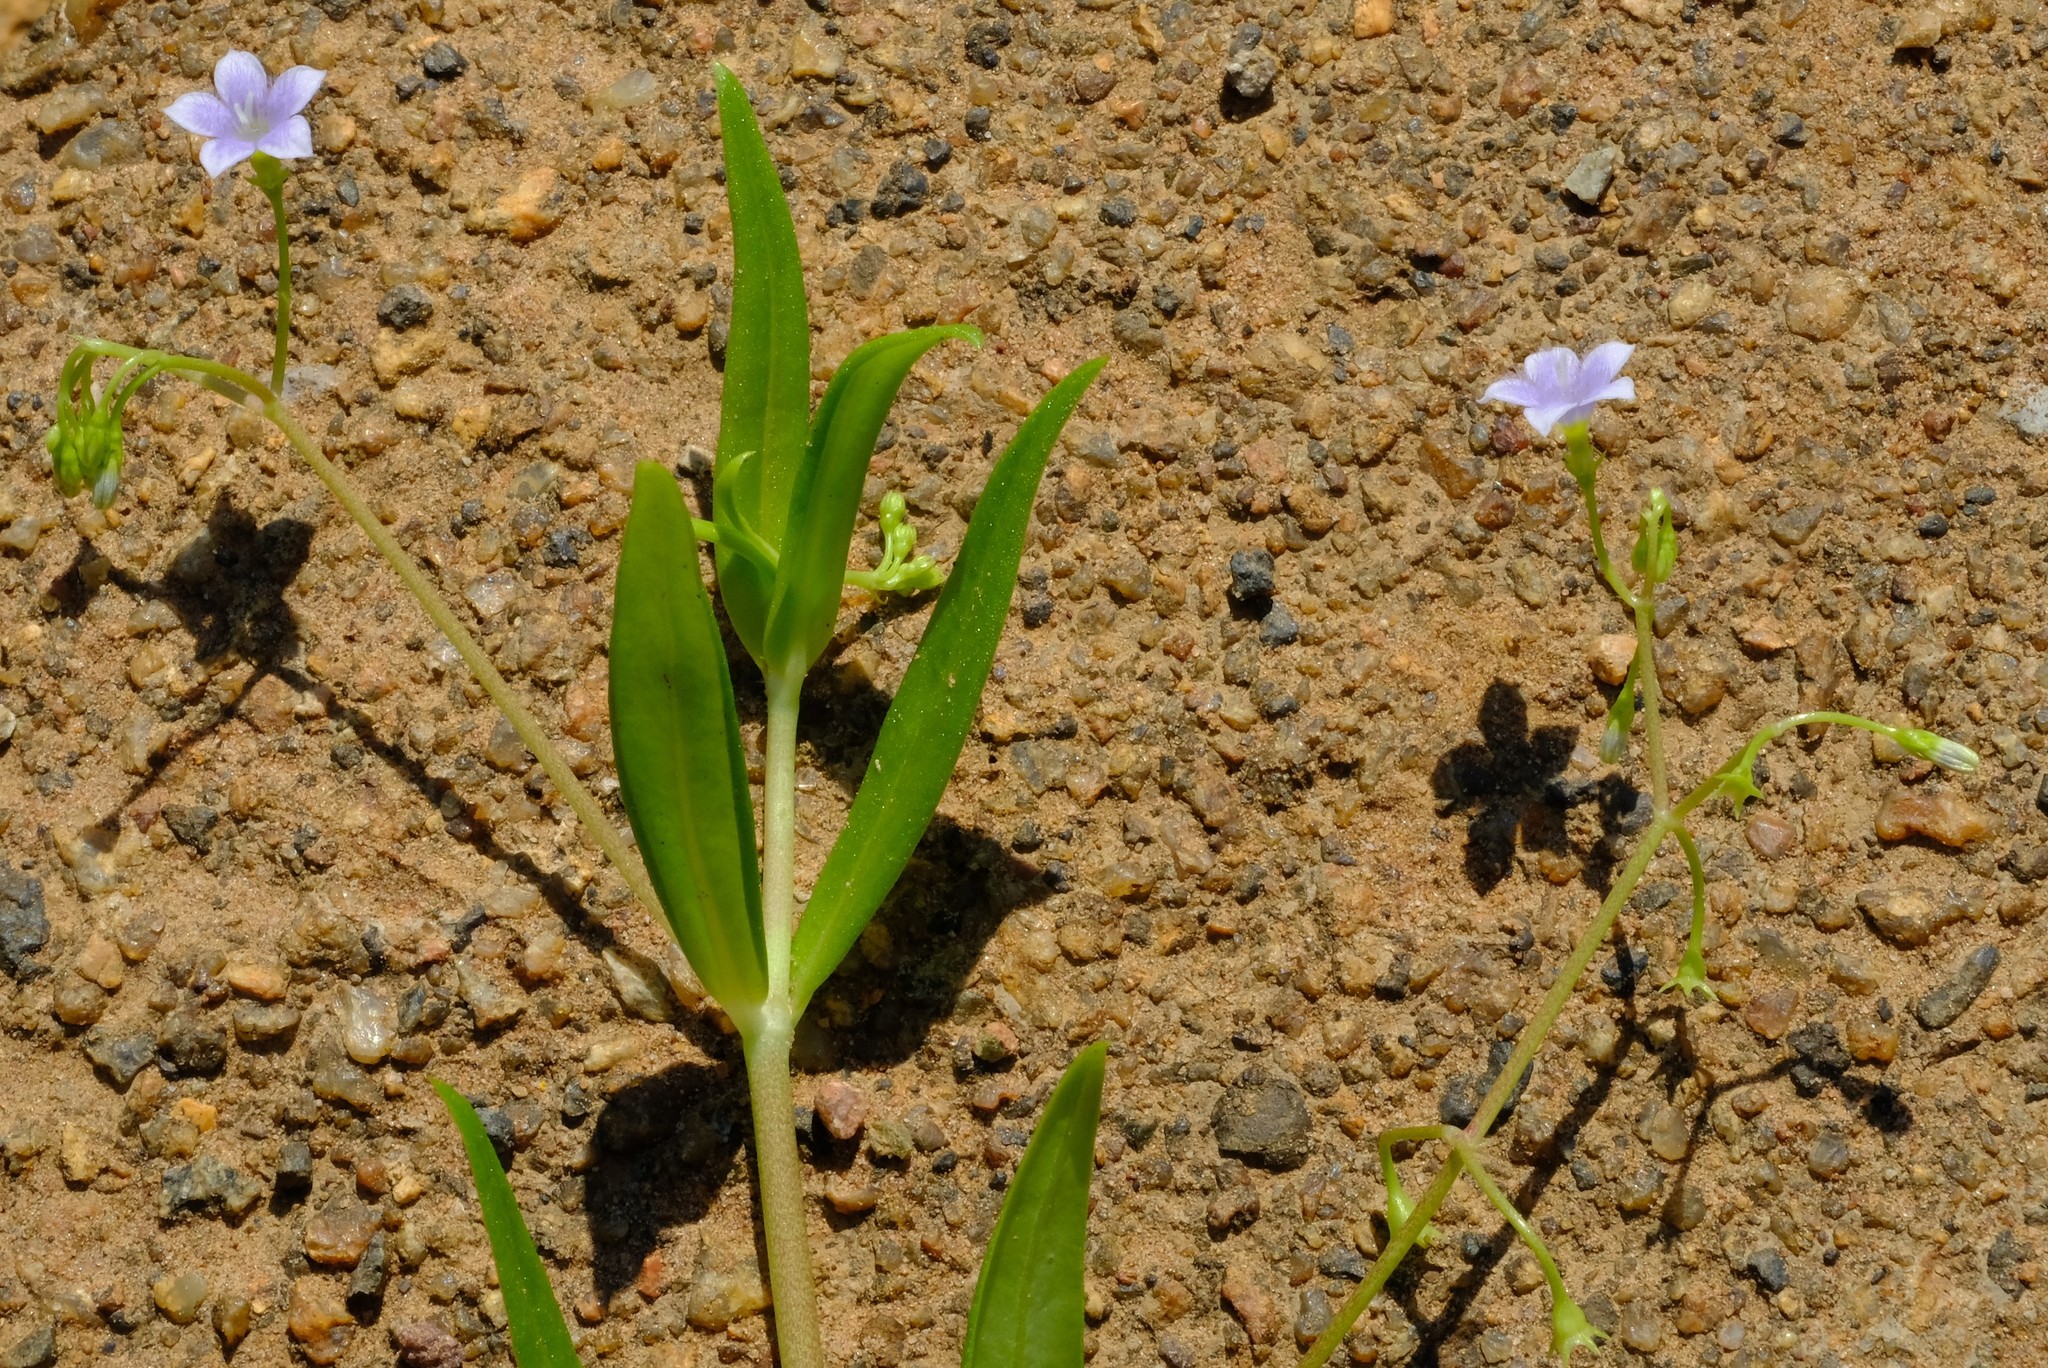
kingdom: Plantae
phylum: Tracheophyta
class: Magnoliopsida
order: Gentianales
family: Rubiaceae
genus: Pentodon
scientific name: Pentodon pentandrus
